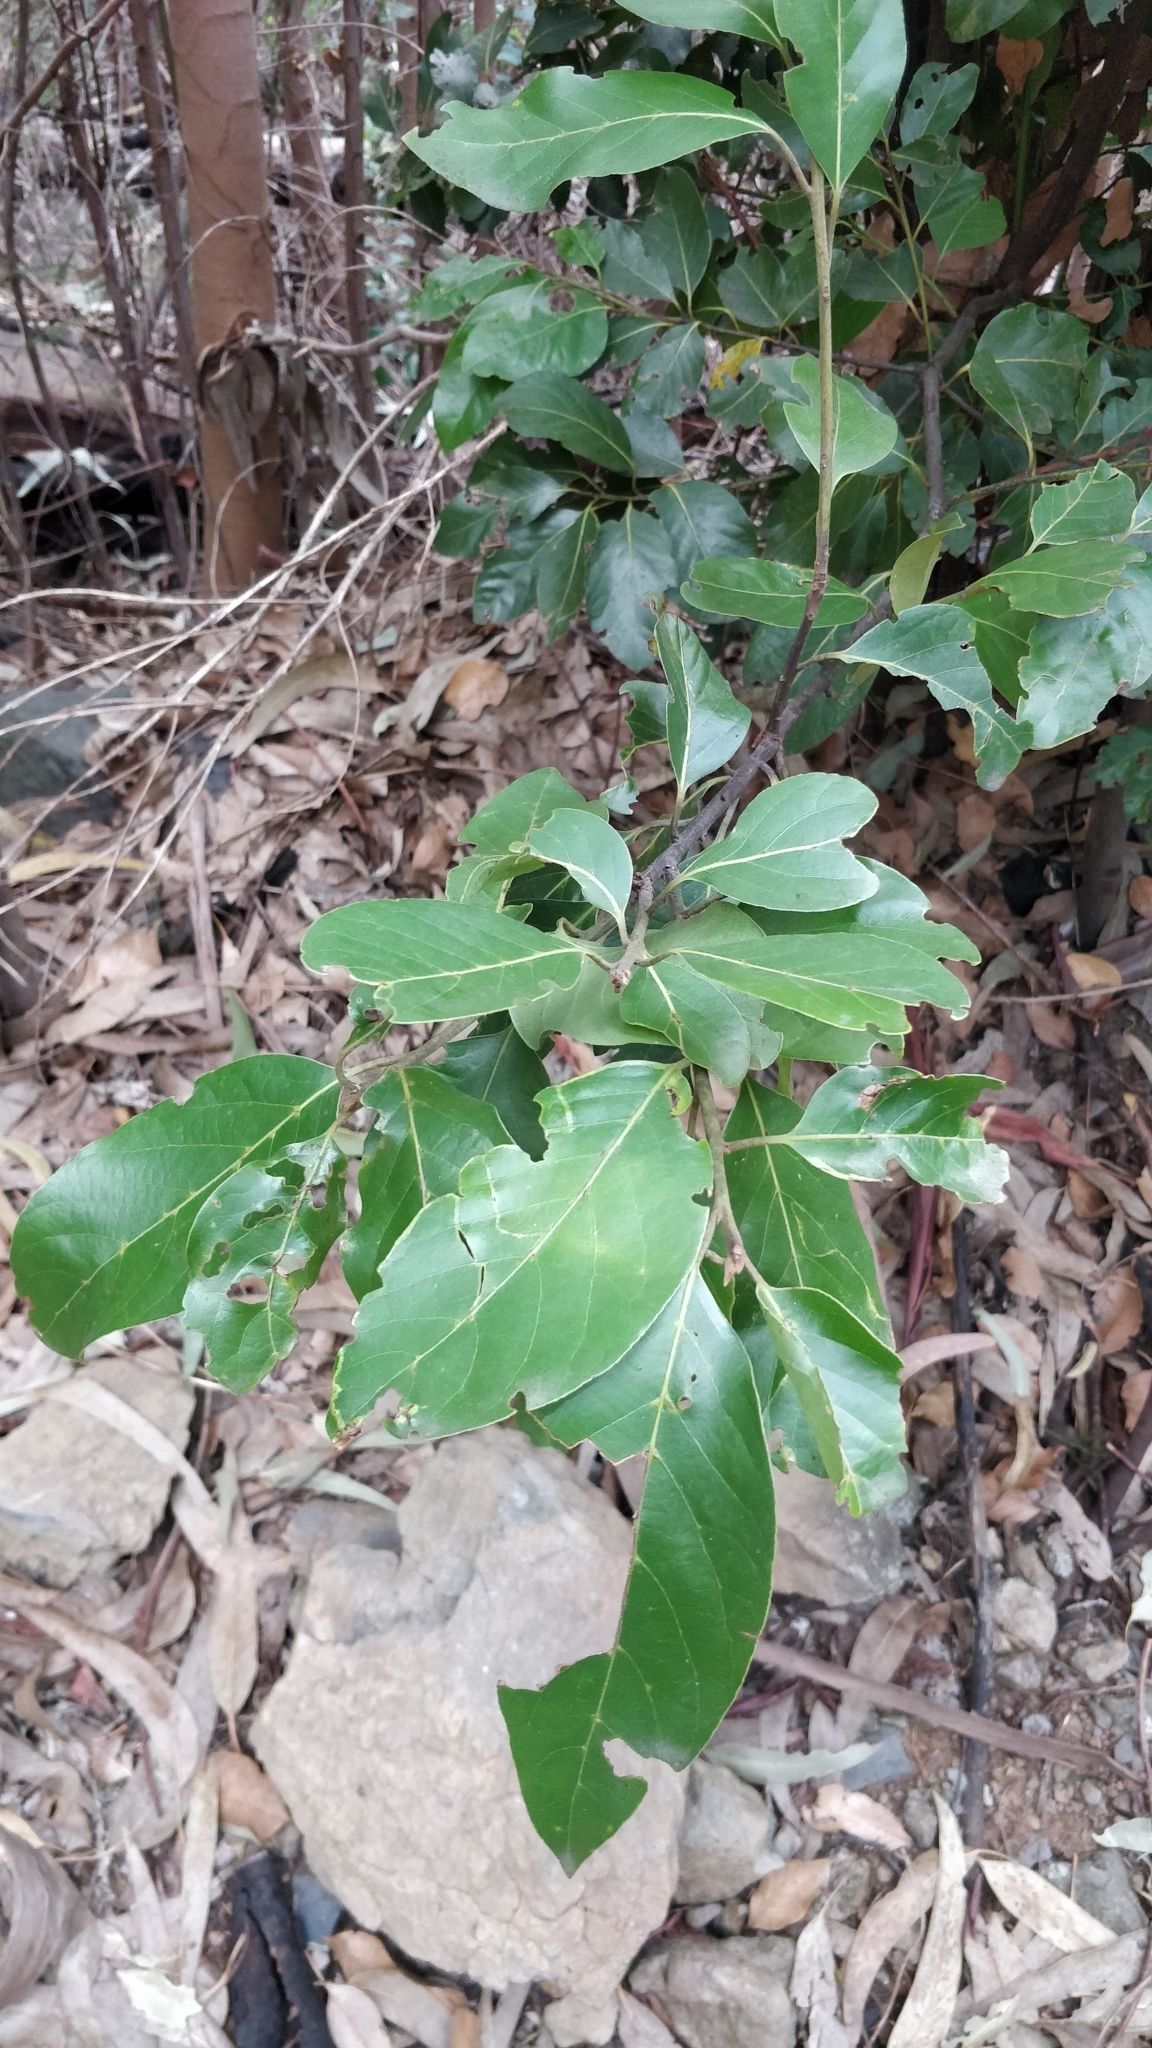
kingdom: Plantae
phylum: Tracheophyta
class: Magnoliopsida
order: Laurales
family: Lauraceae
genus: Laurus
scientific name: Laurus novocanariensis
